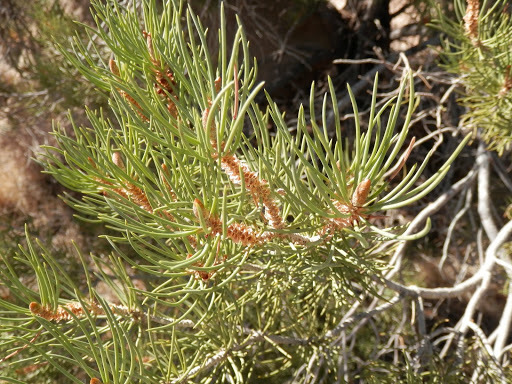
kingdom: Plantae
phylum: Tracheophyta
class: Pinopsida
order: Pinales
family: Pinaceae
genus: Pinus
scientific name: Pinus monophylla
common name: One-leaved nut pine
